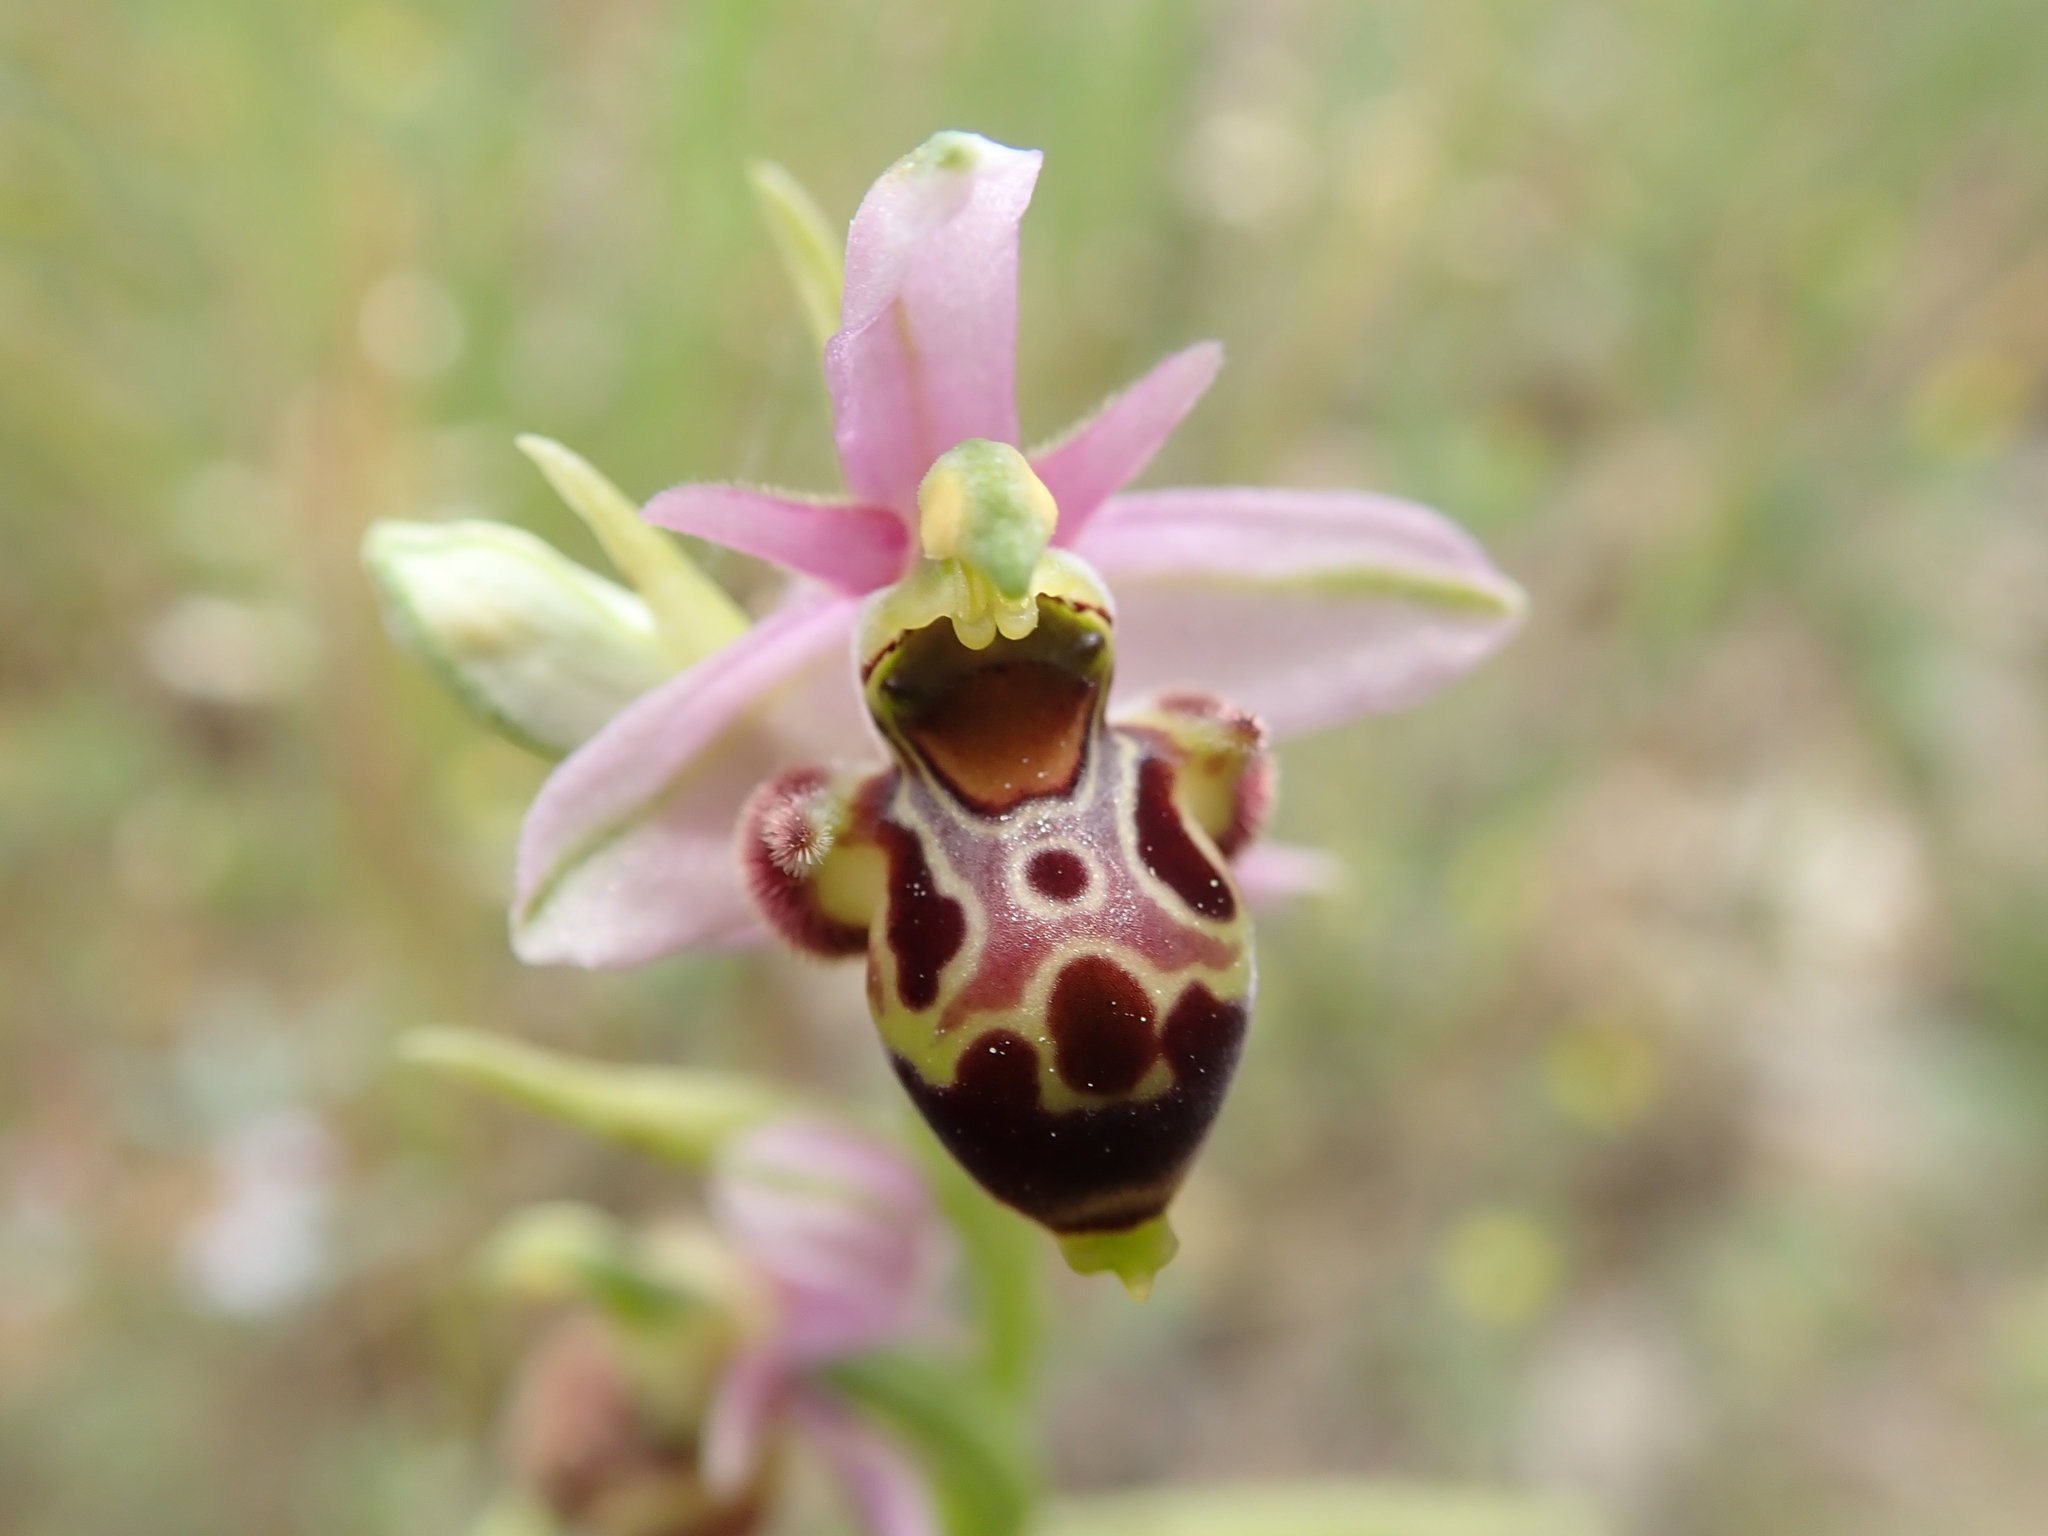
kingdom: Plantae
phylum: Tracheophyta
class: Liliopsida
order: Asparagales
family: Orchidaceae
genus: Ophrys
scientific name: Ophrys scolopax
